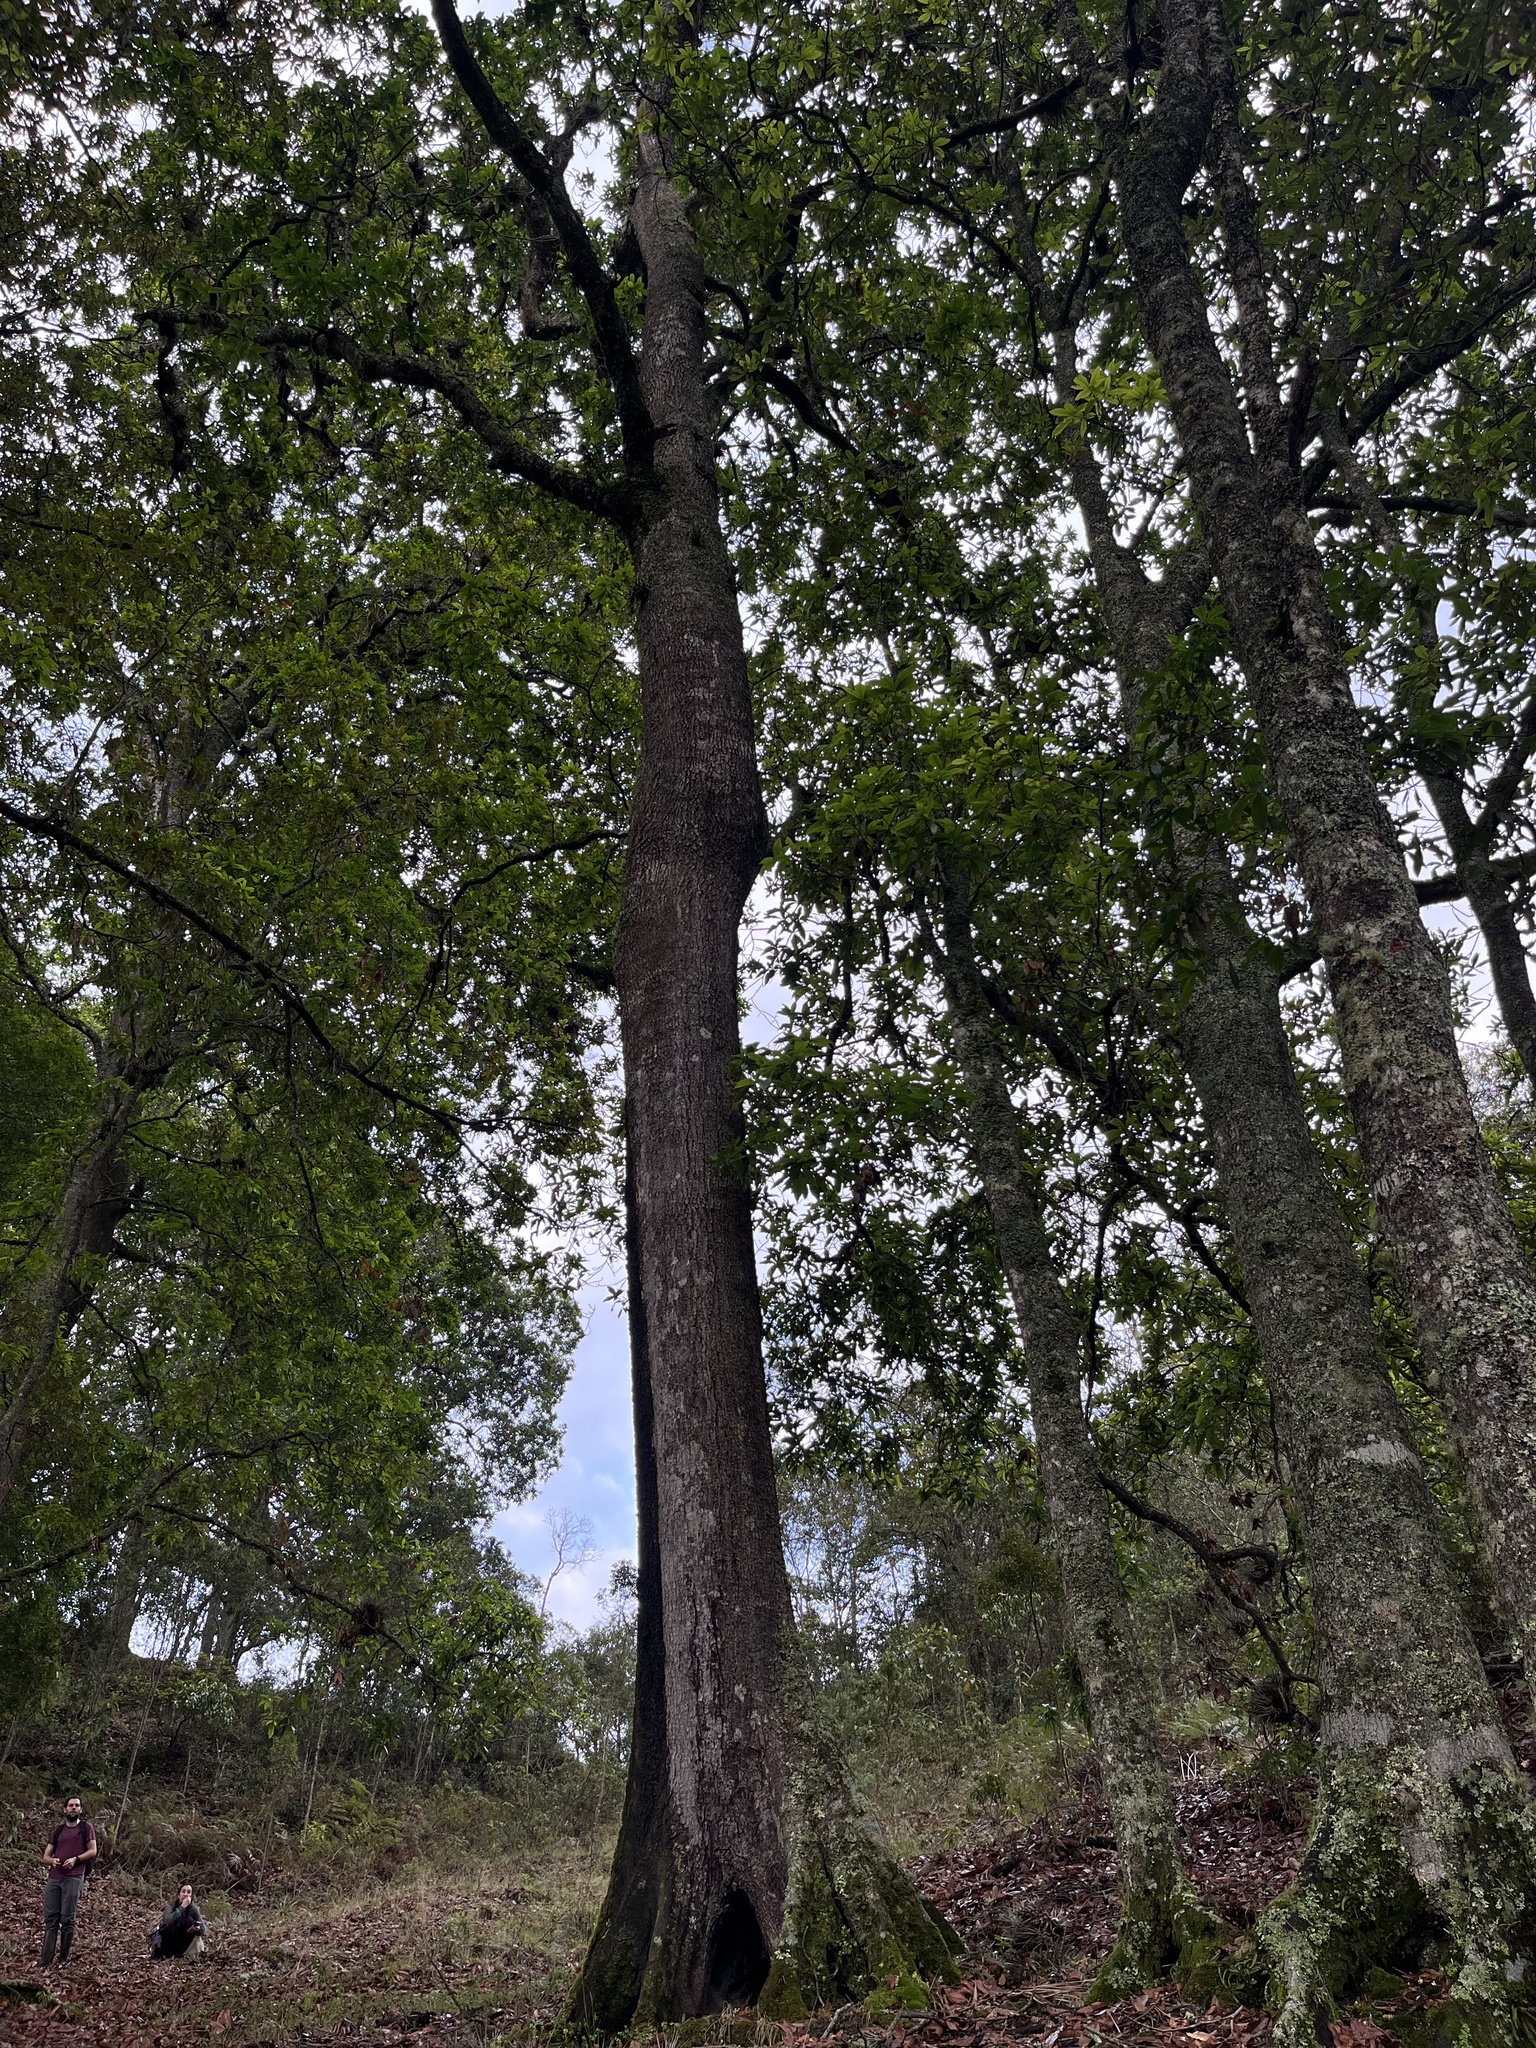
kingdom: Plantae
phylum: Tracheophyta
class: Magnoliopsida
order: Fagales
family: Fagaceae
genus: Quercus
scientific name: Quercus humboldtii
